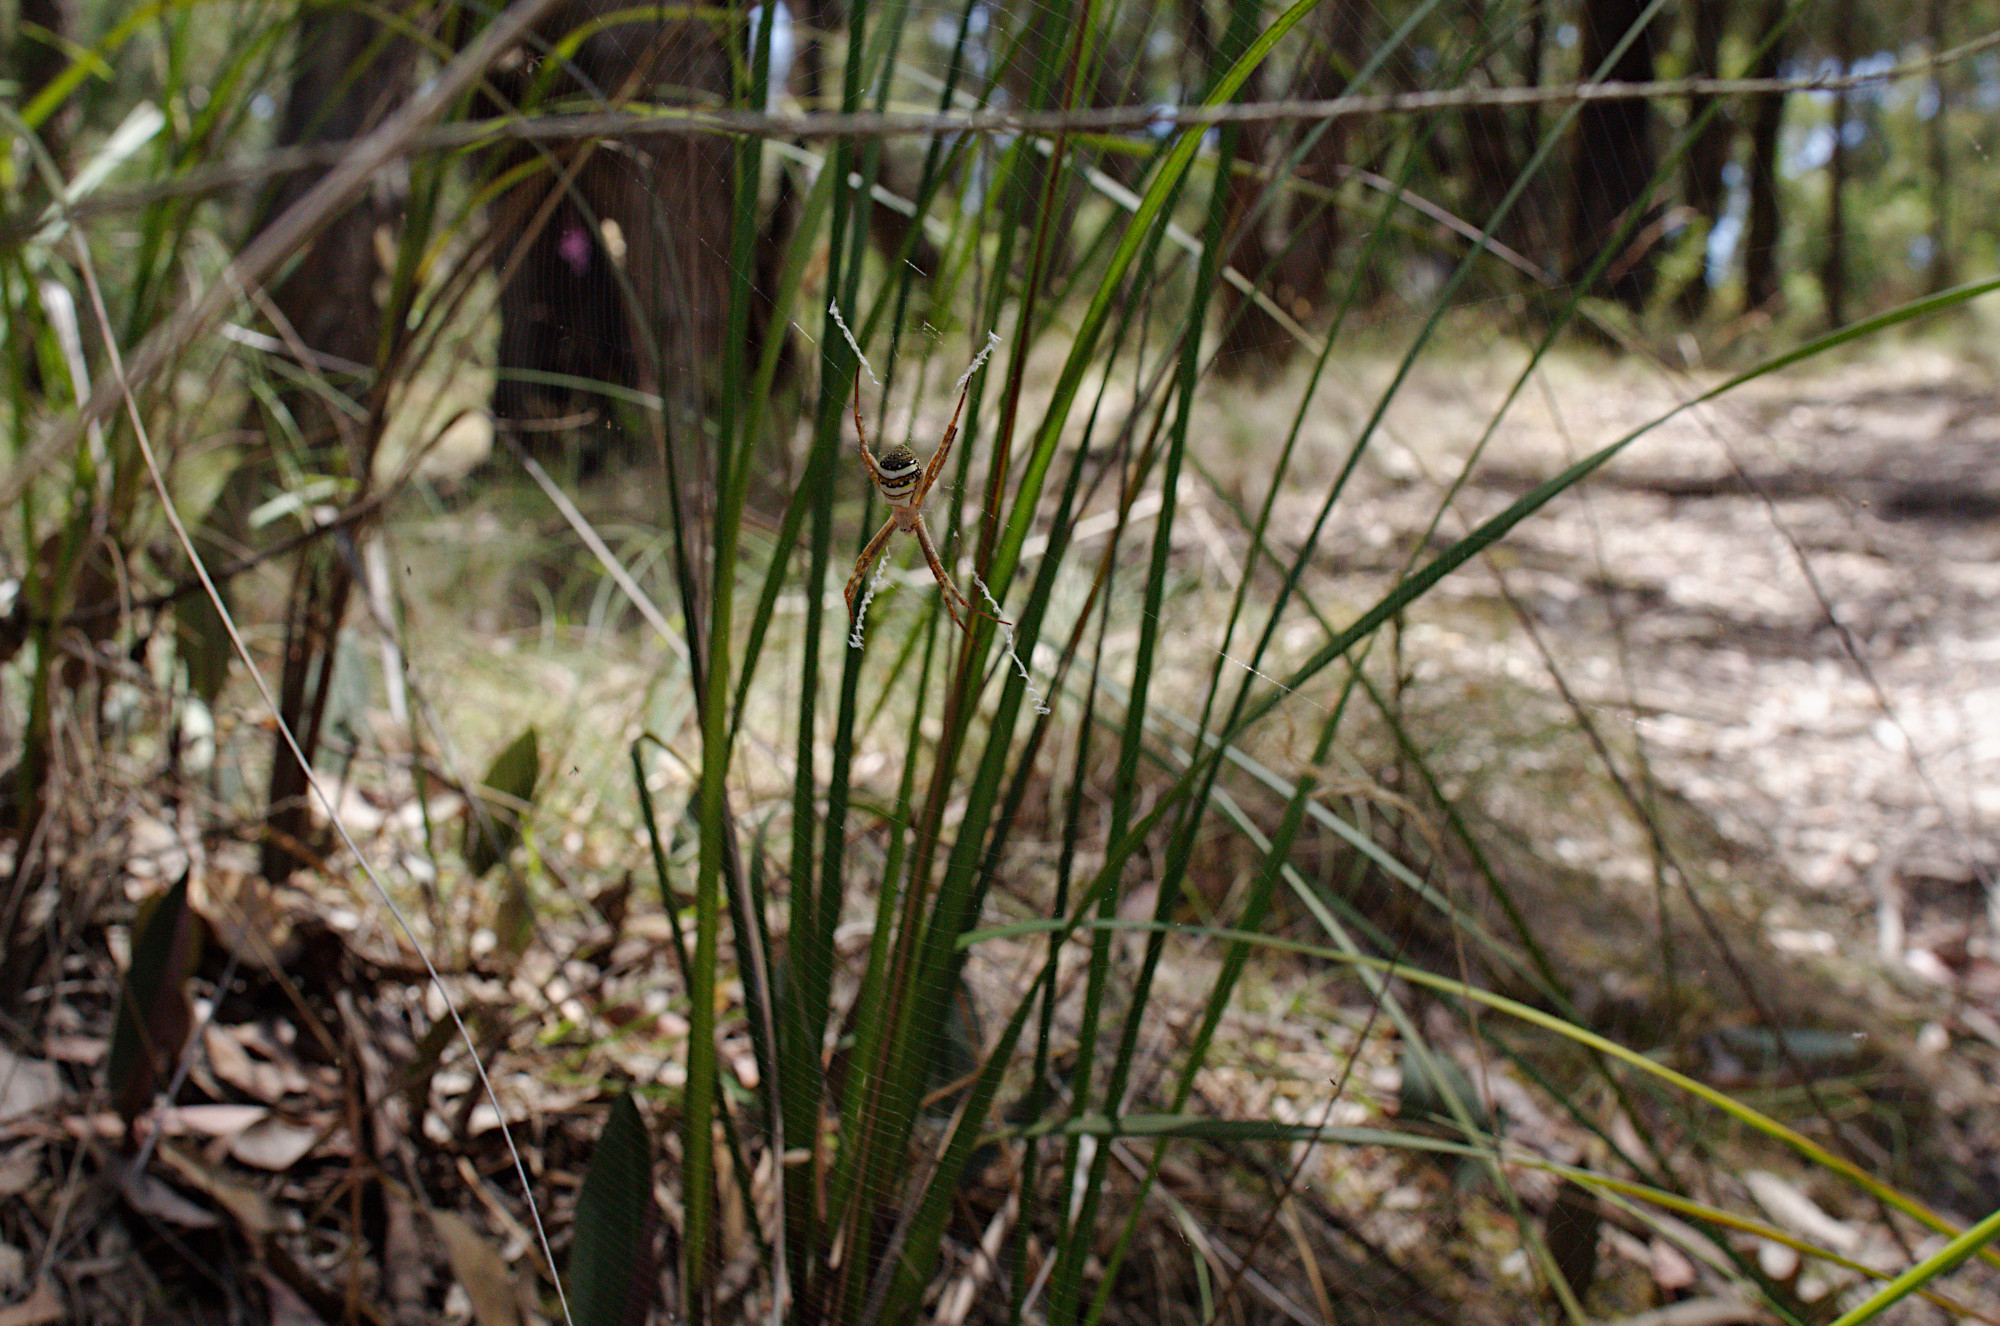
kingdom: Animalia
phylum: Arthropoda
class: Arachnida
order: Araneae
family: Araneidae
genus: Argiope
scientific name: Argiope keyserlingi
